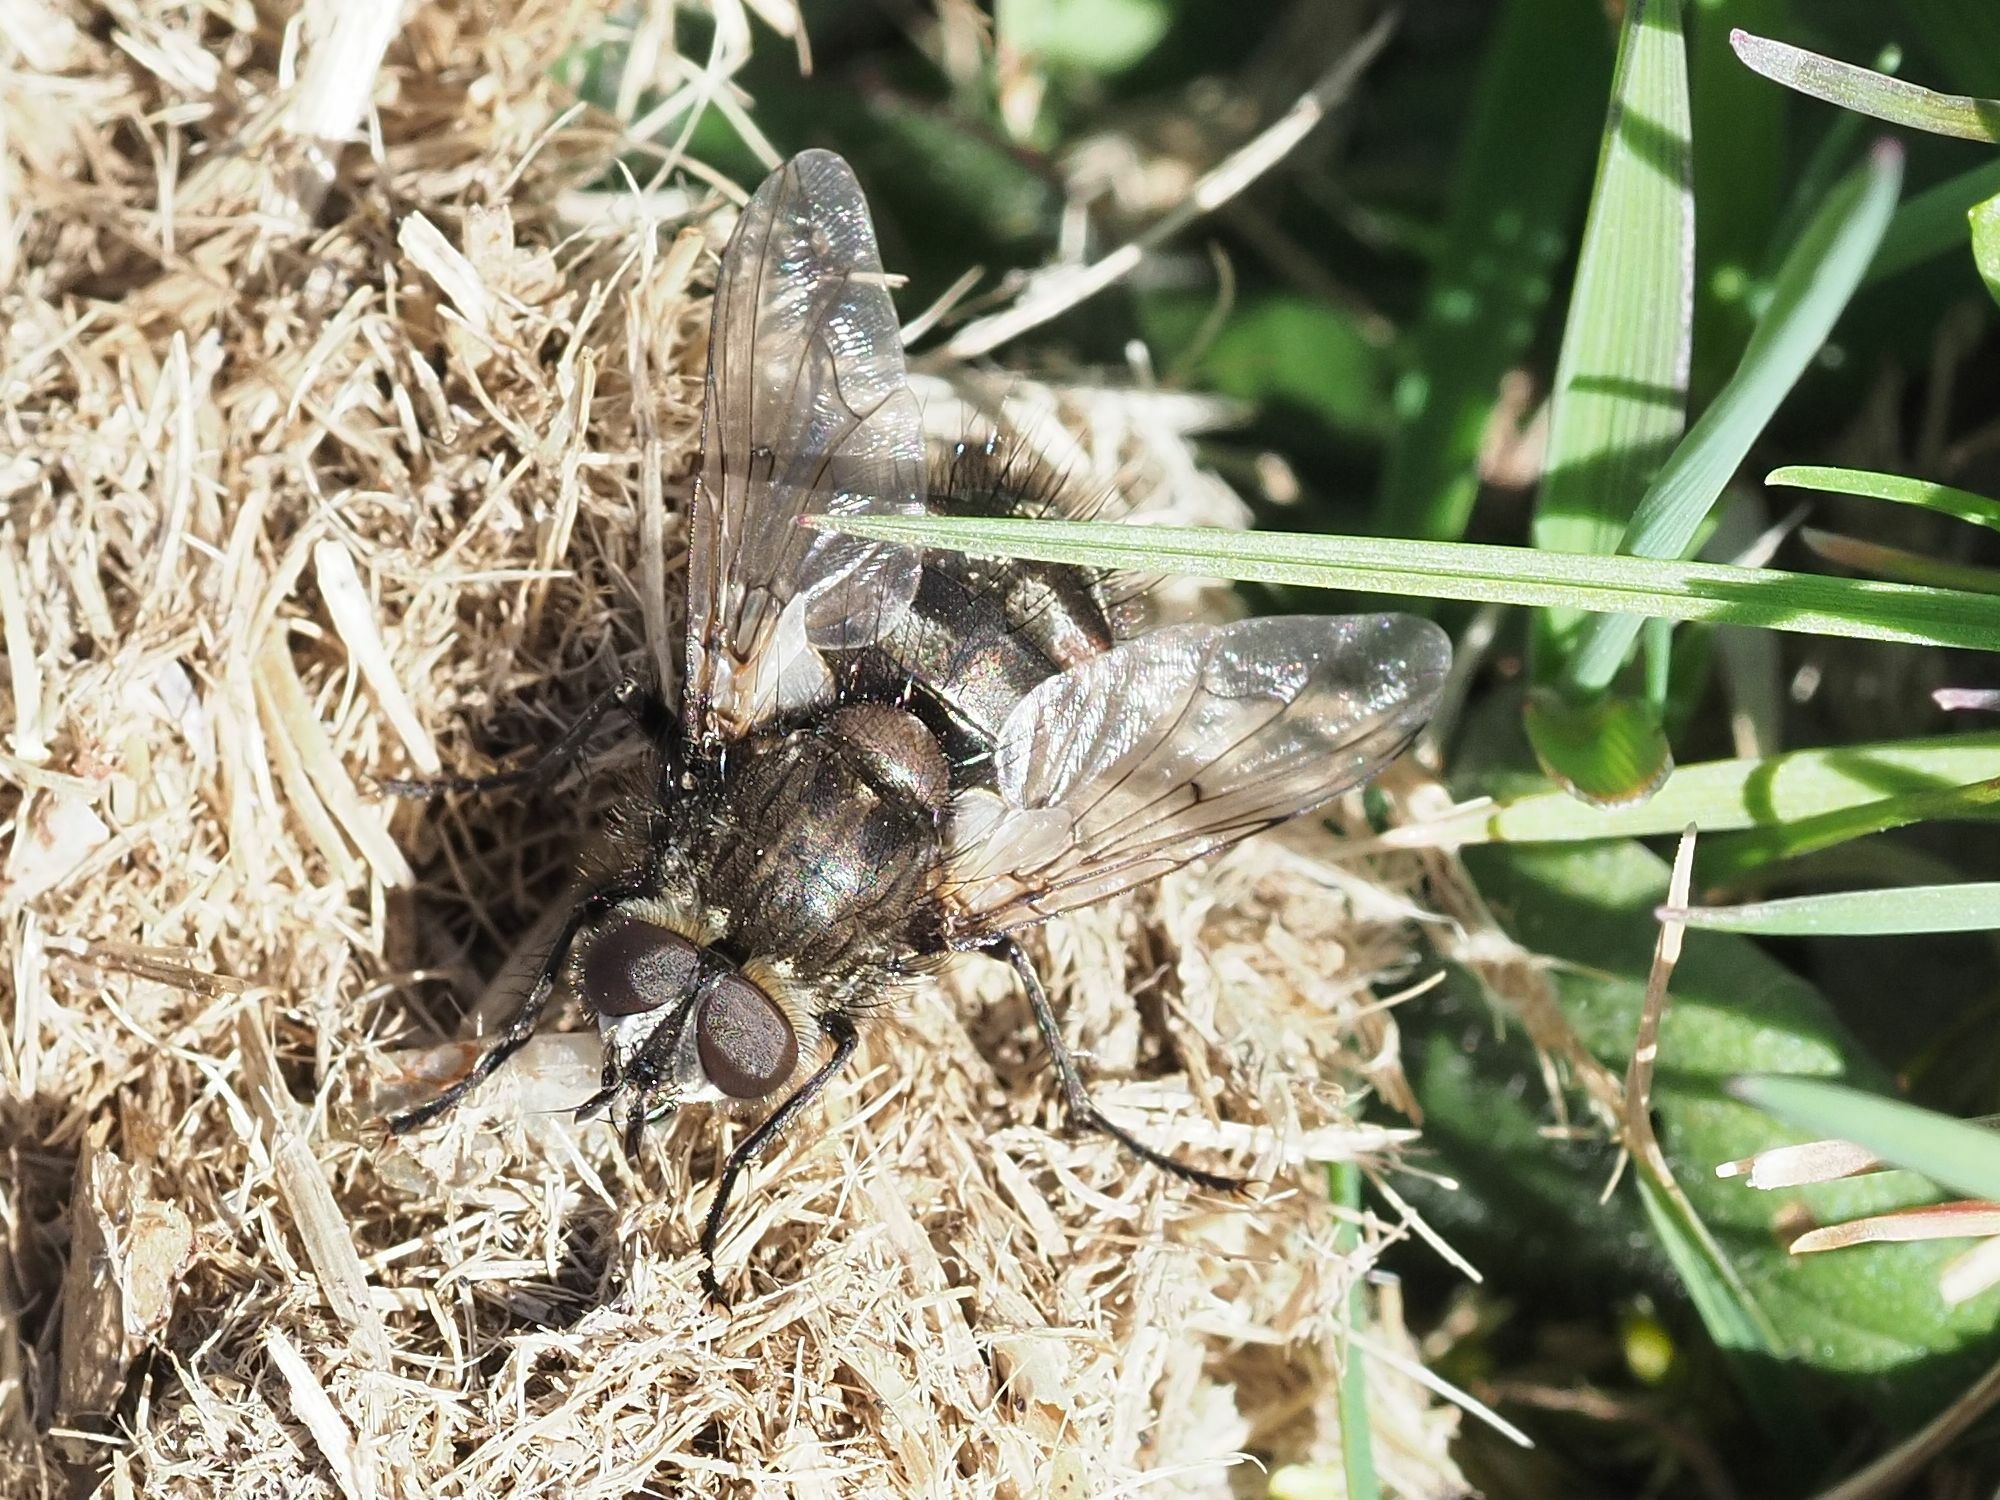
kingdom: Animalia
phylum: Arthropoda
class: Insecta
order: Diptera
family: Tachinidae
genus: Panzeria
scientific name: Panzeria puparum
